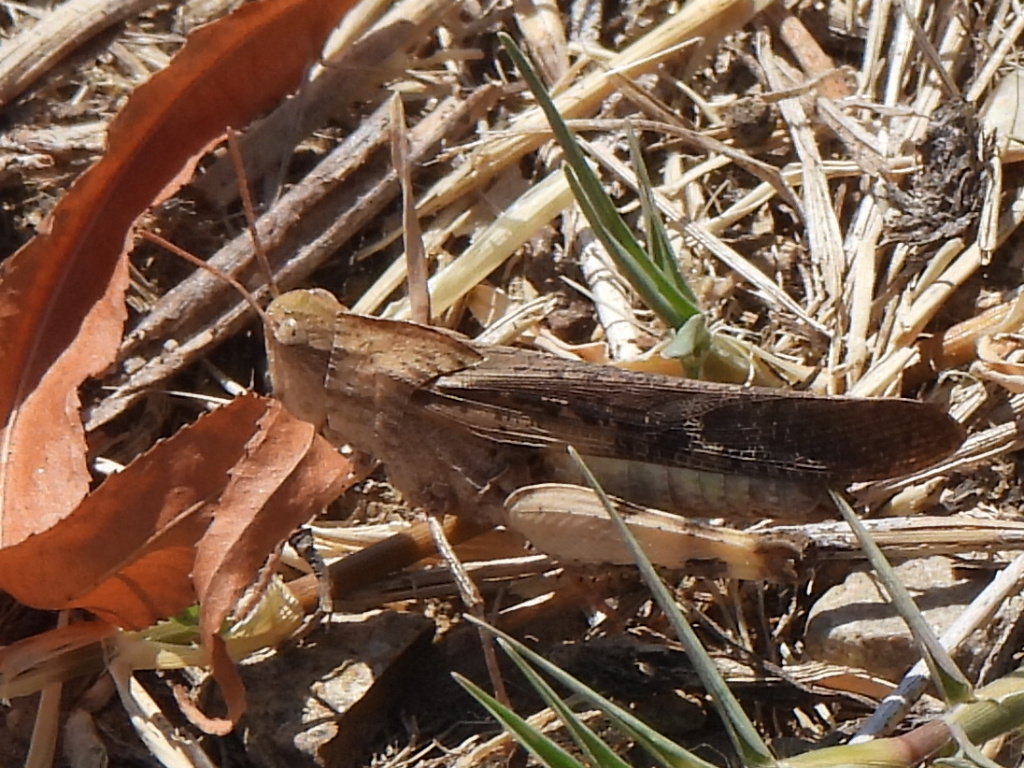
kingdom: Animalia
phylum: Arthropoda
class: Insecta
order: Orthoptera
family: Acrididae
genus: Chortophaga
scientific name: Chortophaga viridifasciata
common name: Green-striped grasshopper
